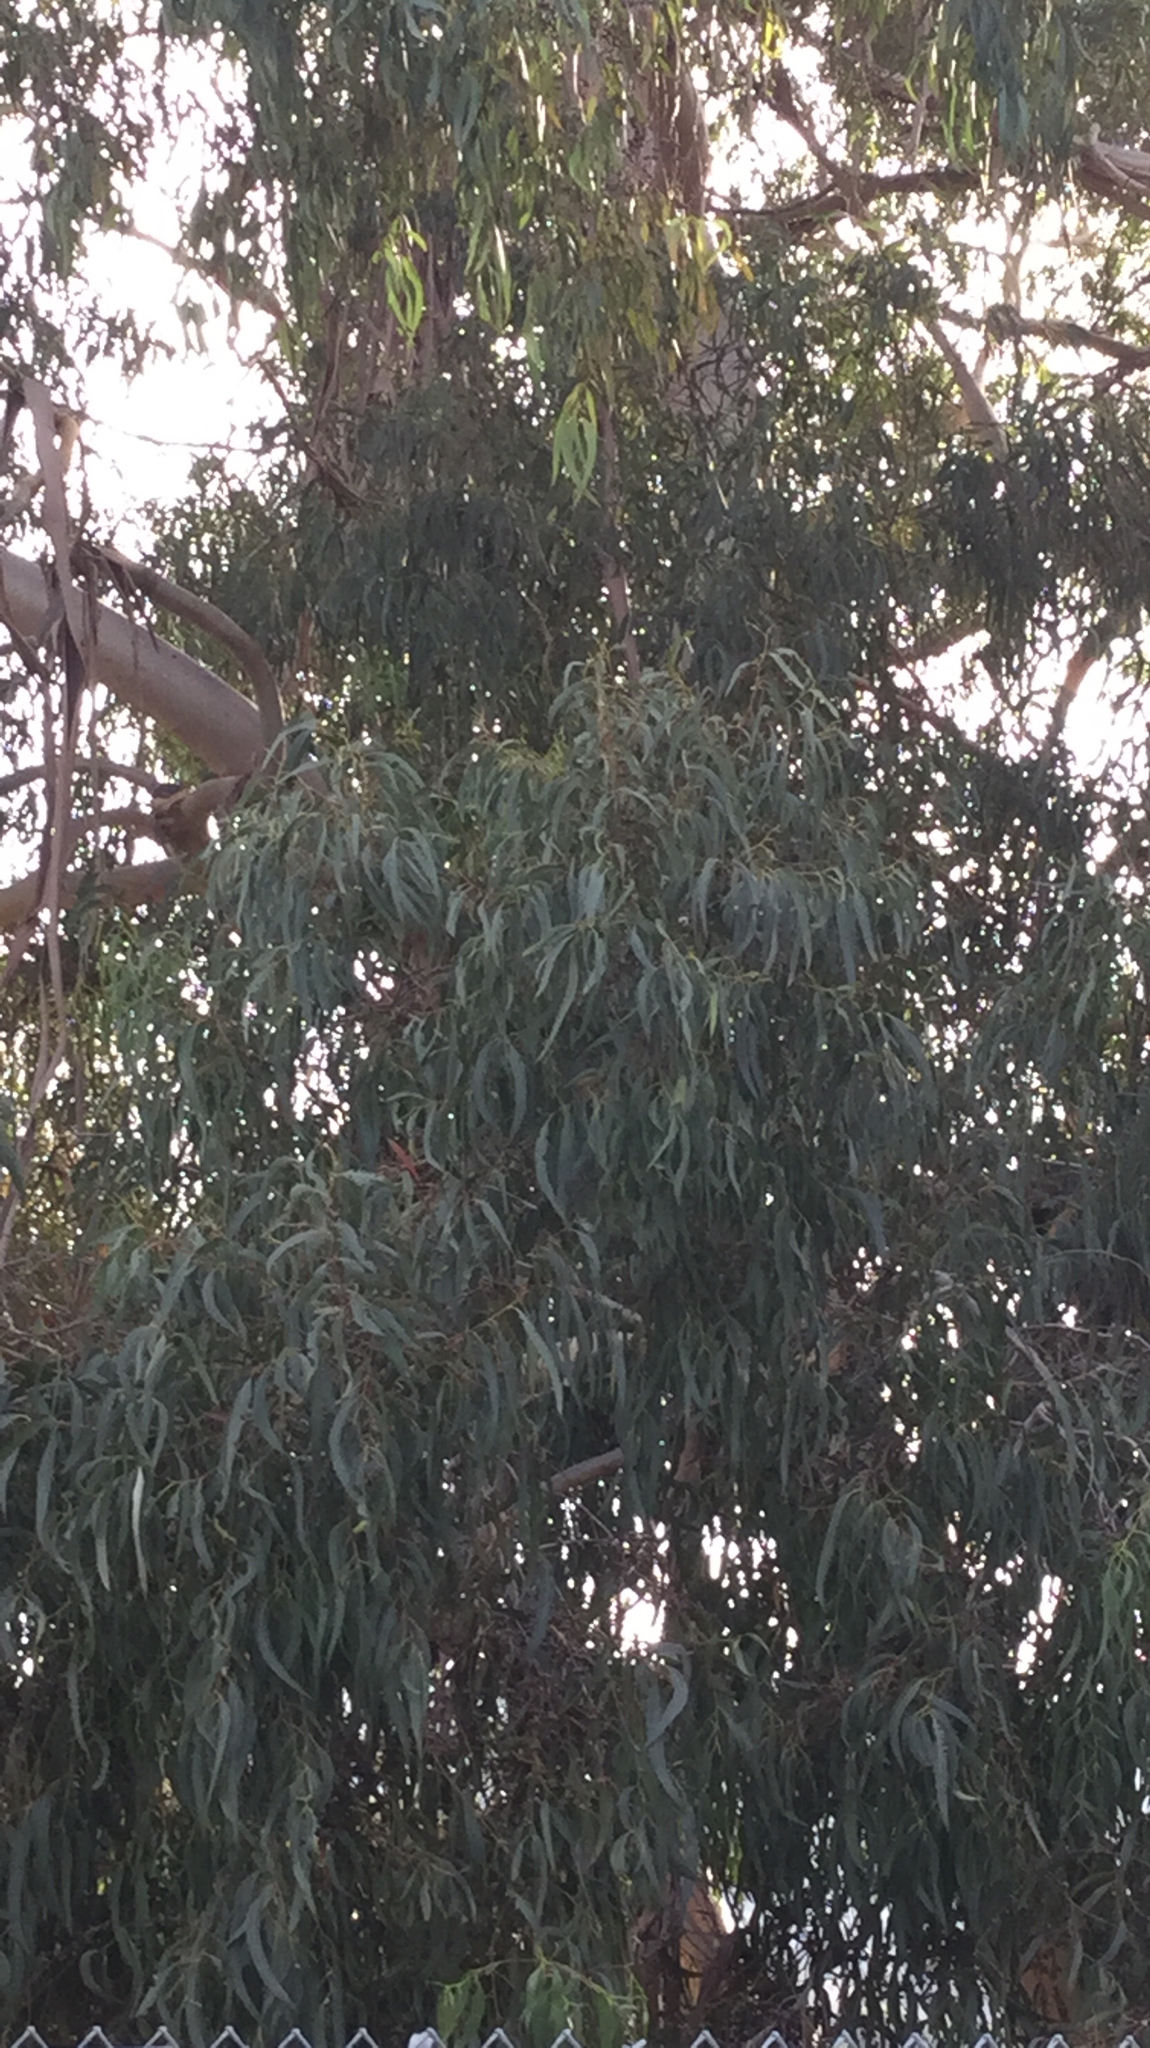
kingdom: Plantae
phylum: Tracheophyta
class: Magnoliopsida
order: Myrtales
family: Myrtaceae
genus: Eucalyptus
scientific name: Eucalyptus globulus
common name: Southern blue-gum
